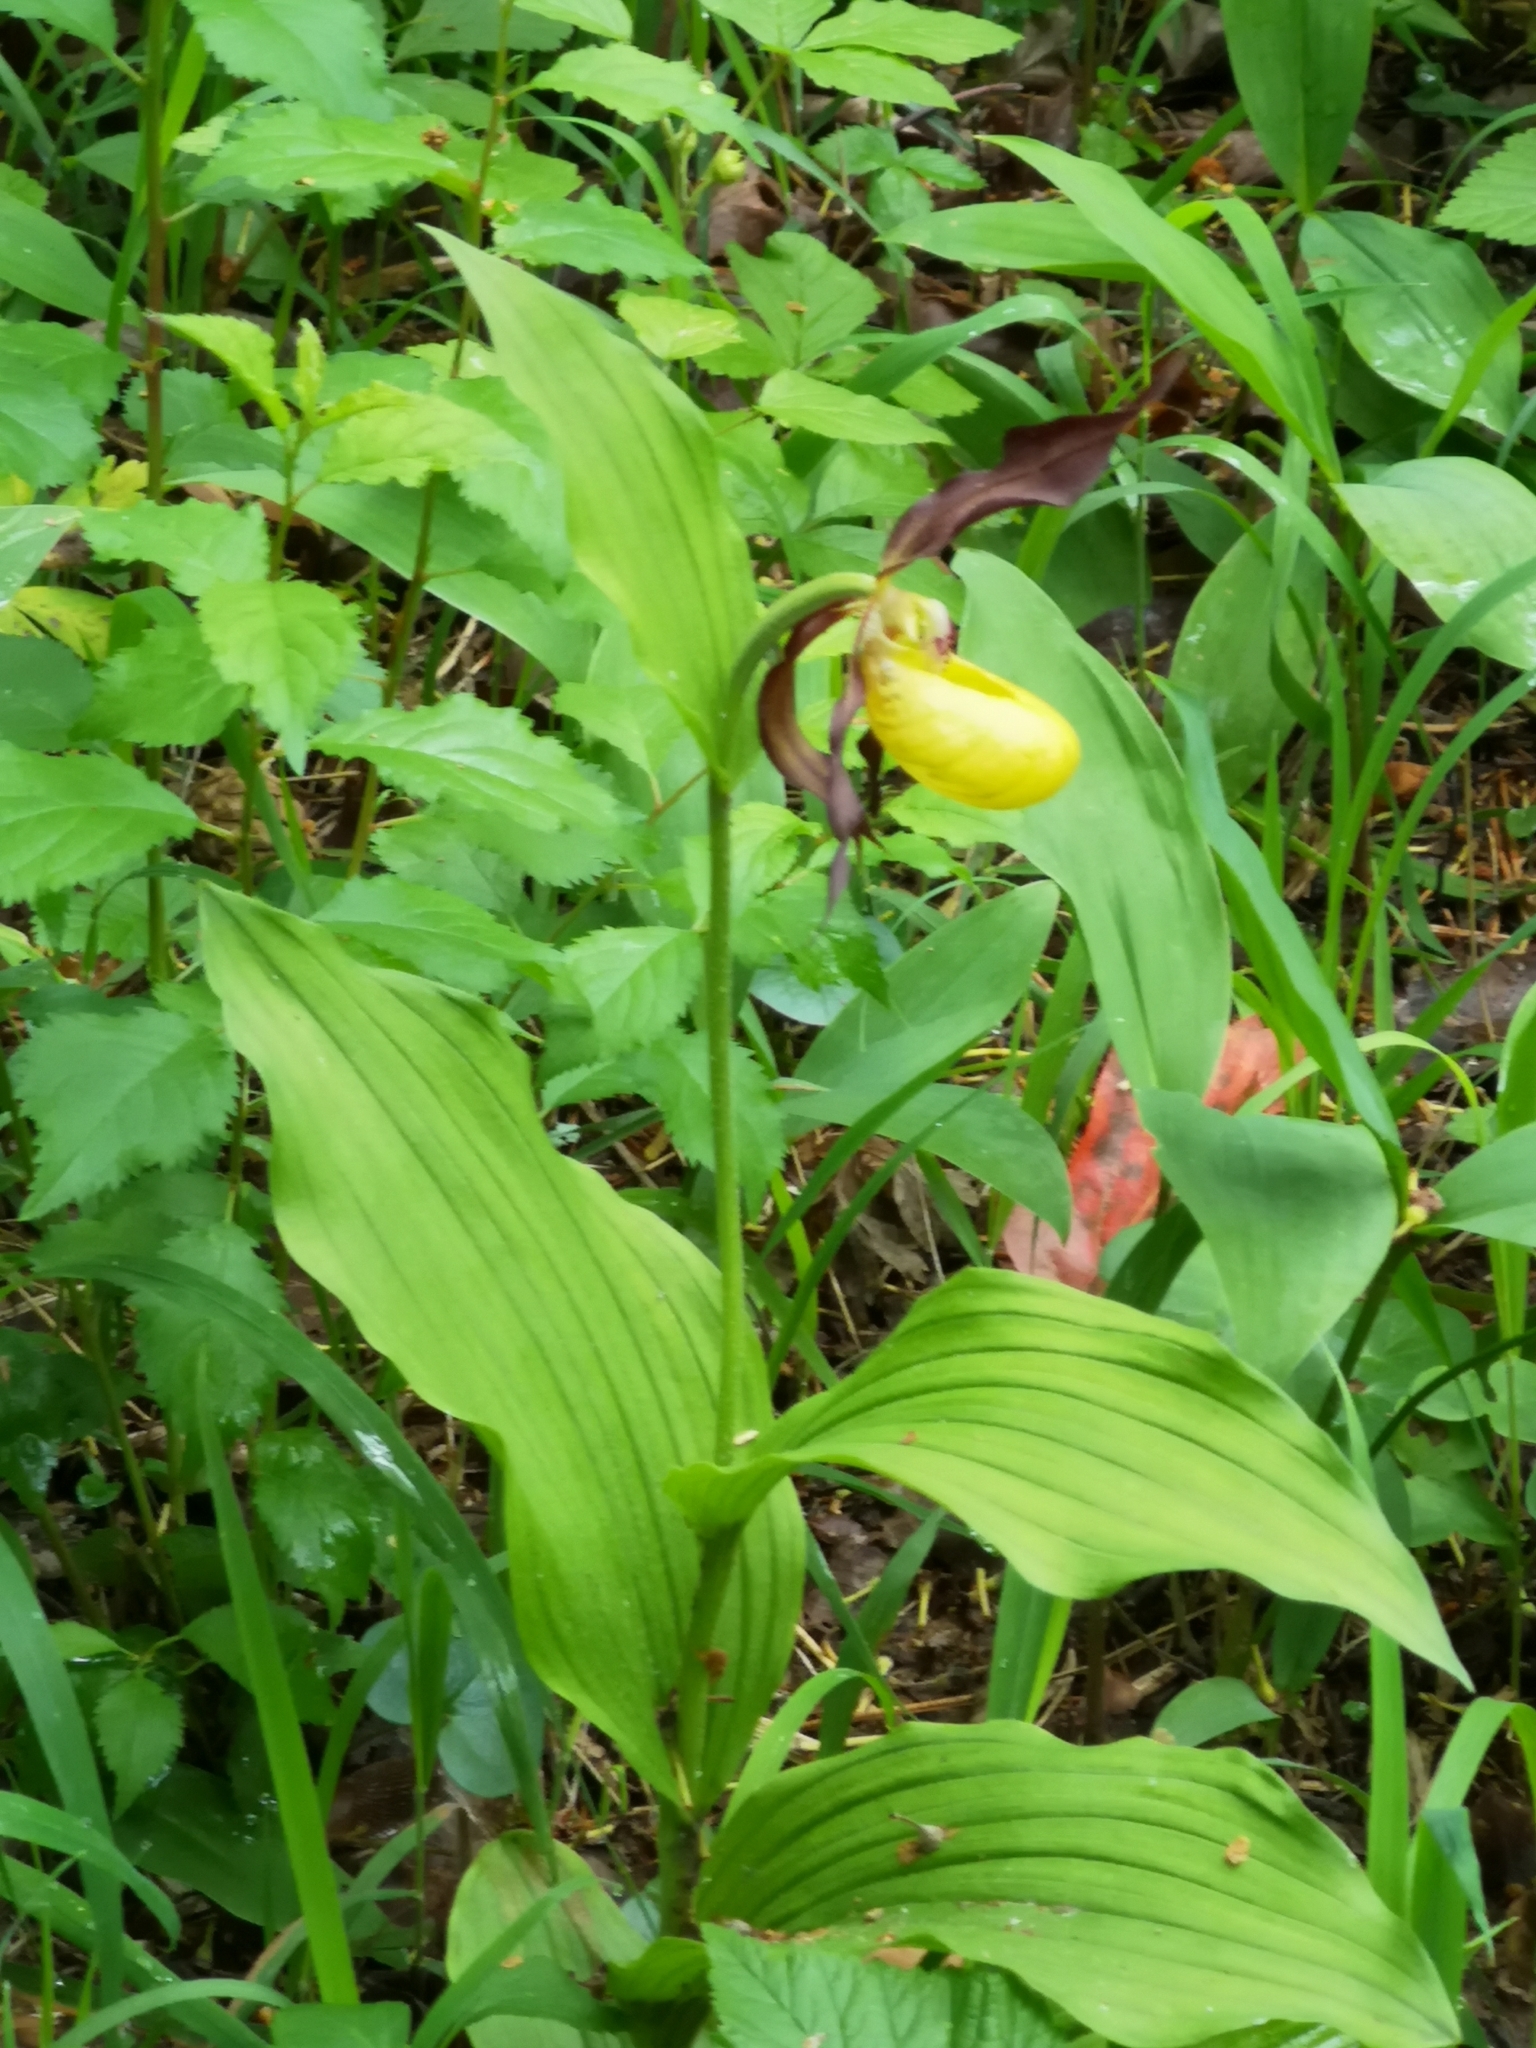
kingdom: Plantae
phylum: Tracheophyta
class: Liliopsida
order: Asparagales
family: Orchidaceae
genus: Cypripedium
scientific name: Cypripedium calceolus
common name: Lady's-slipper
